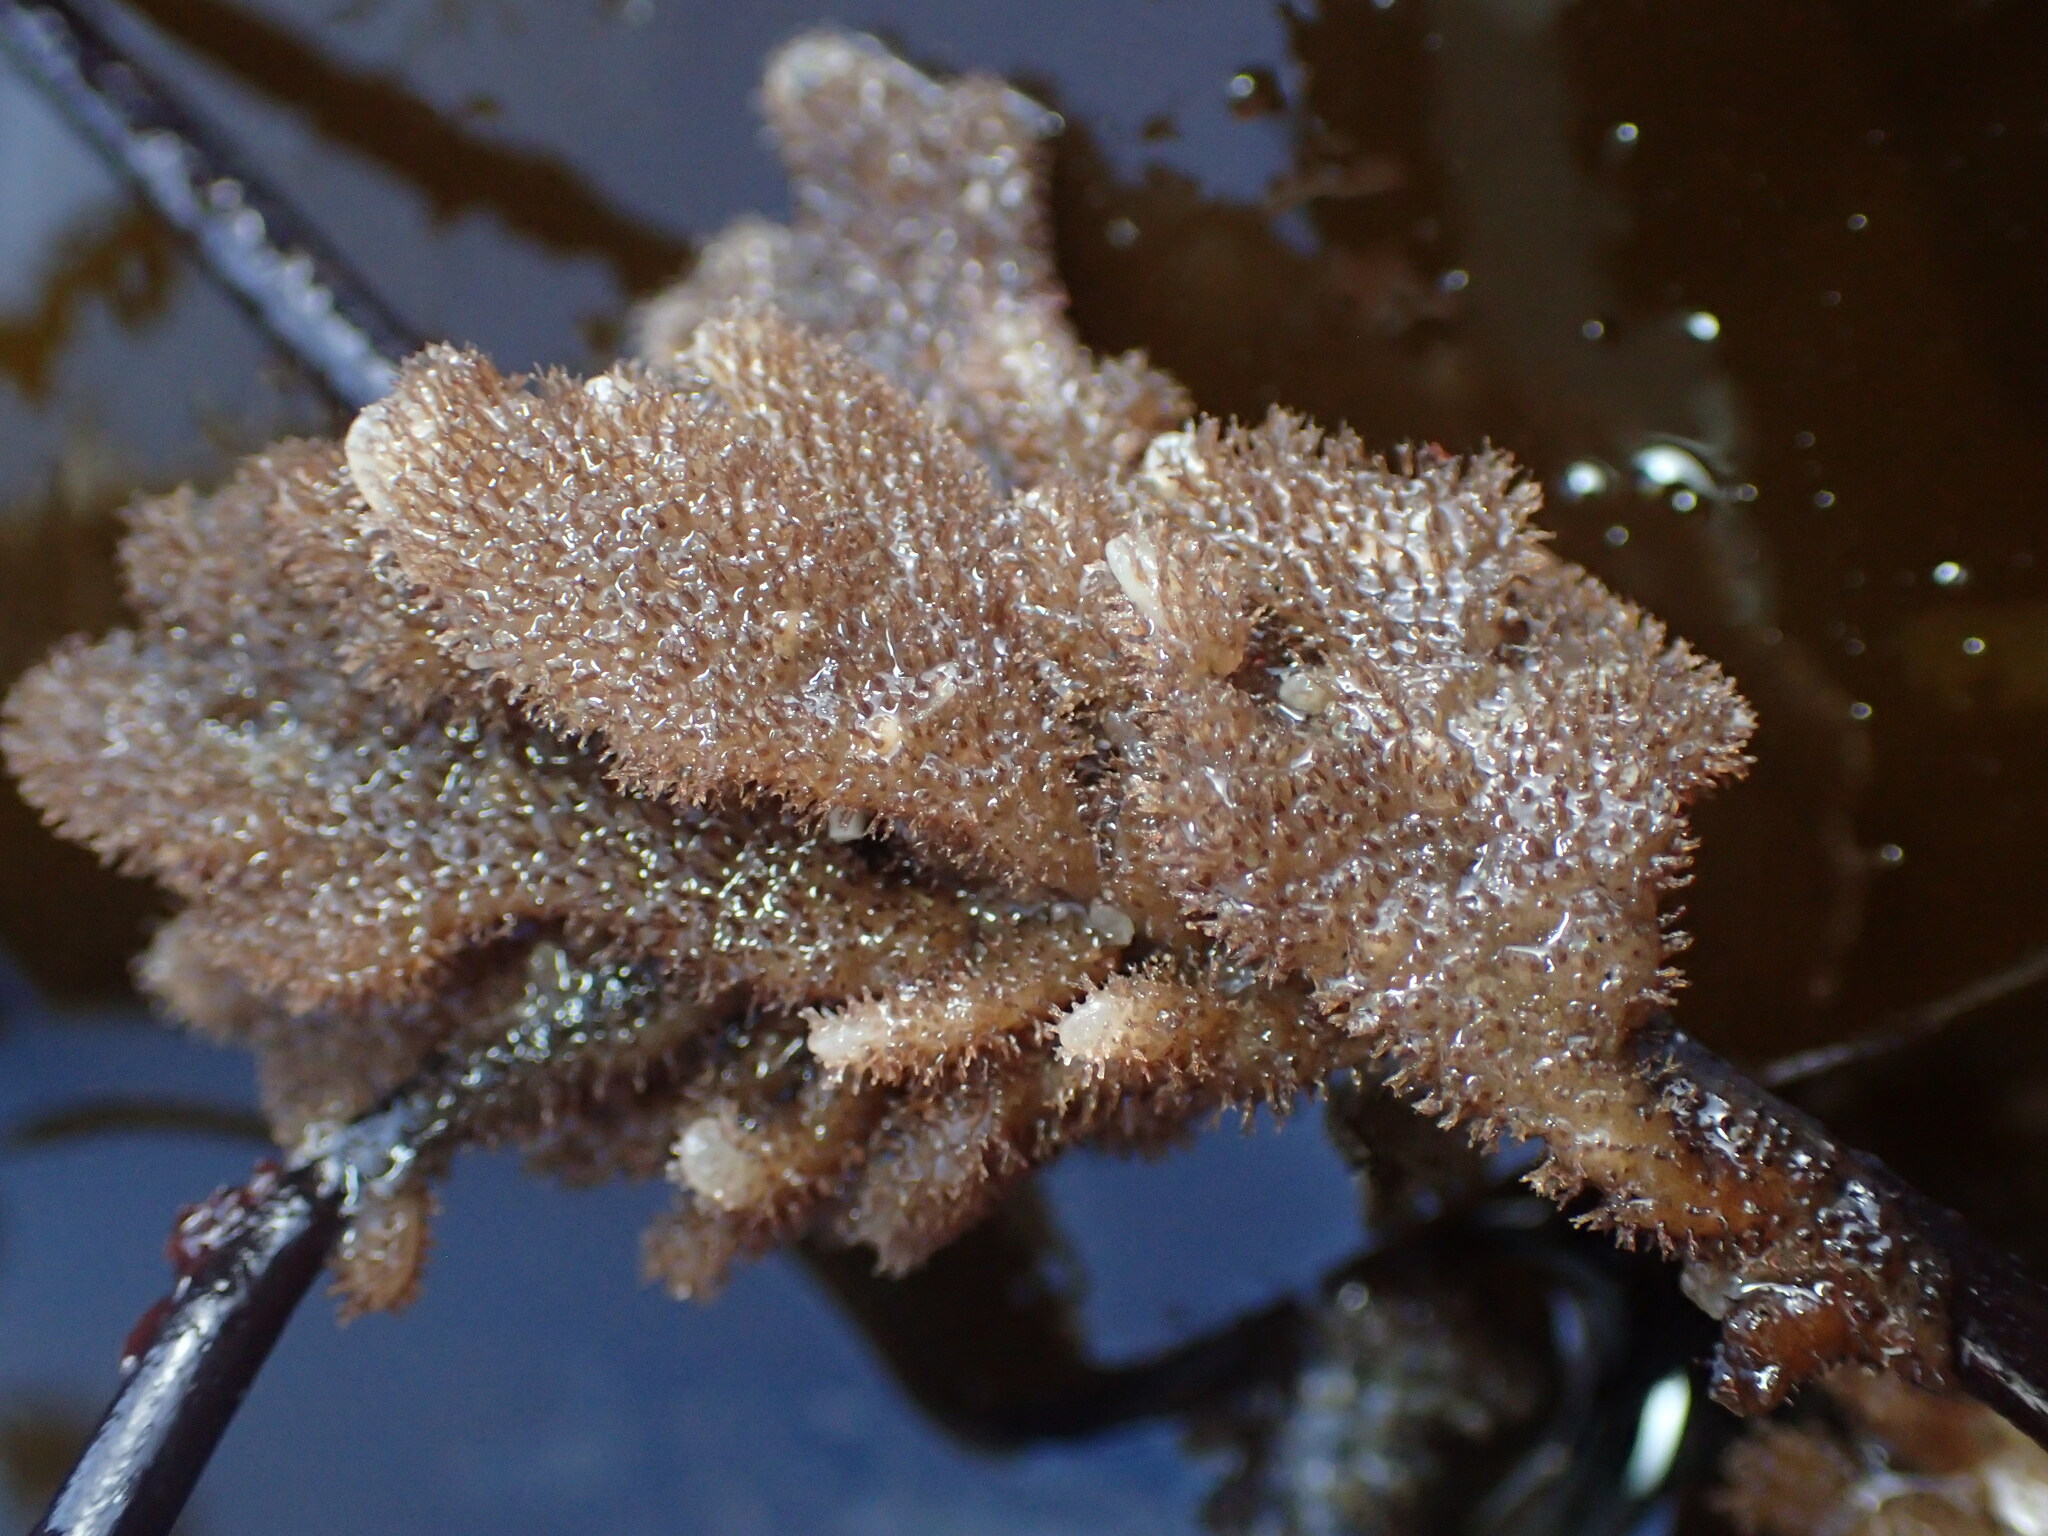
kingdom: Animalia
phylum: Bryozoa
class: Gymnolaemata
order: Ctenostomatida
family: Flustrellidridae
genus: Flustrellidra
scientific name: Flustrellidra corniculata
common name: Spiny leather bryozoan
